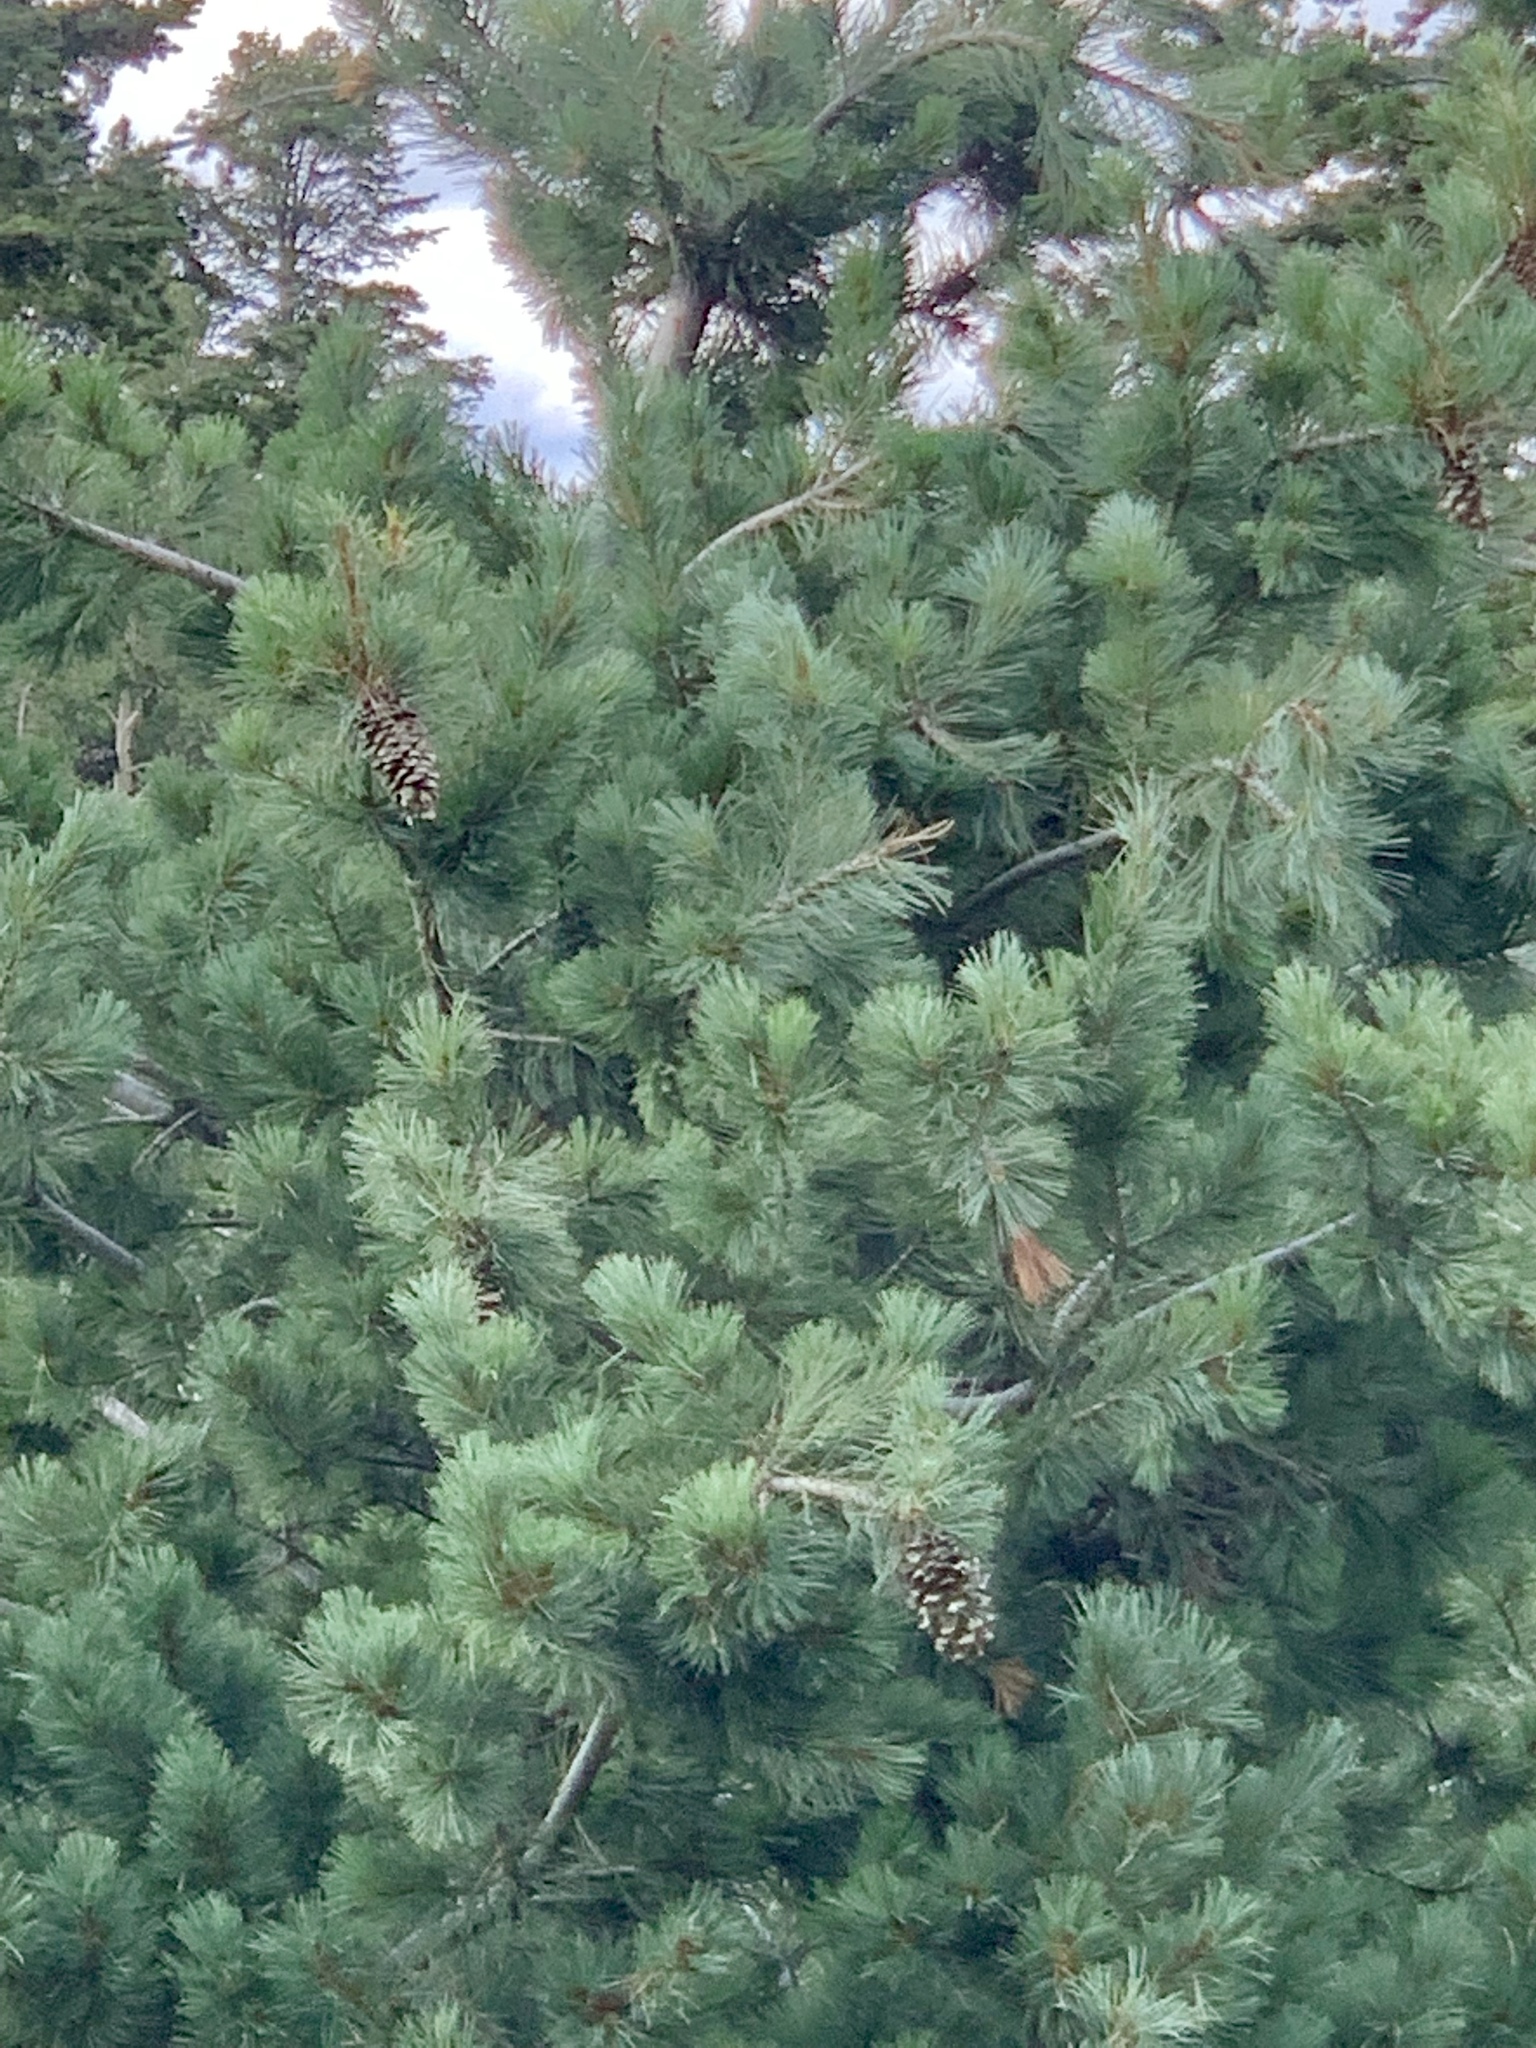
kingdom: Plantae
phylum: Tracheophyta
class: Pinopsida
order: Pinales
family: Pinaceae
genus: Pinus
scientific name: Pinus strobiformis
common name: Southwestern white pine
